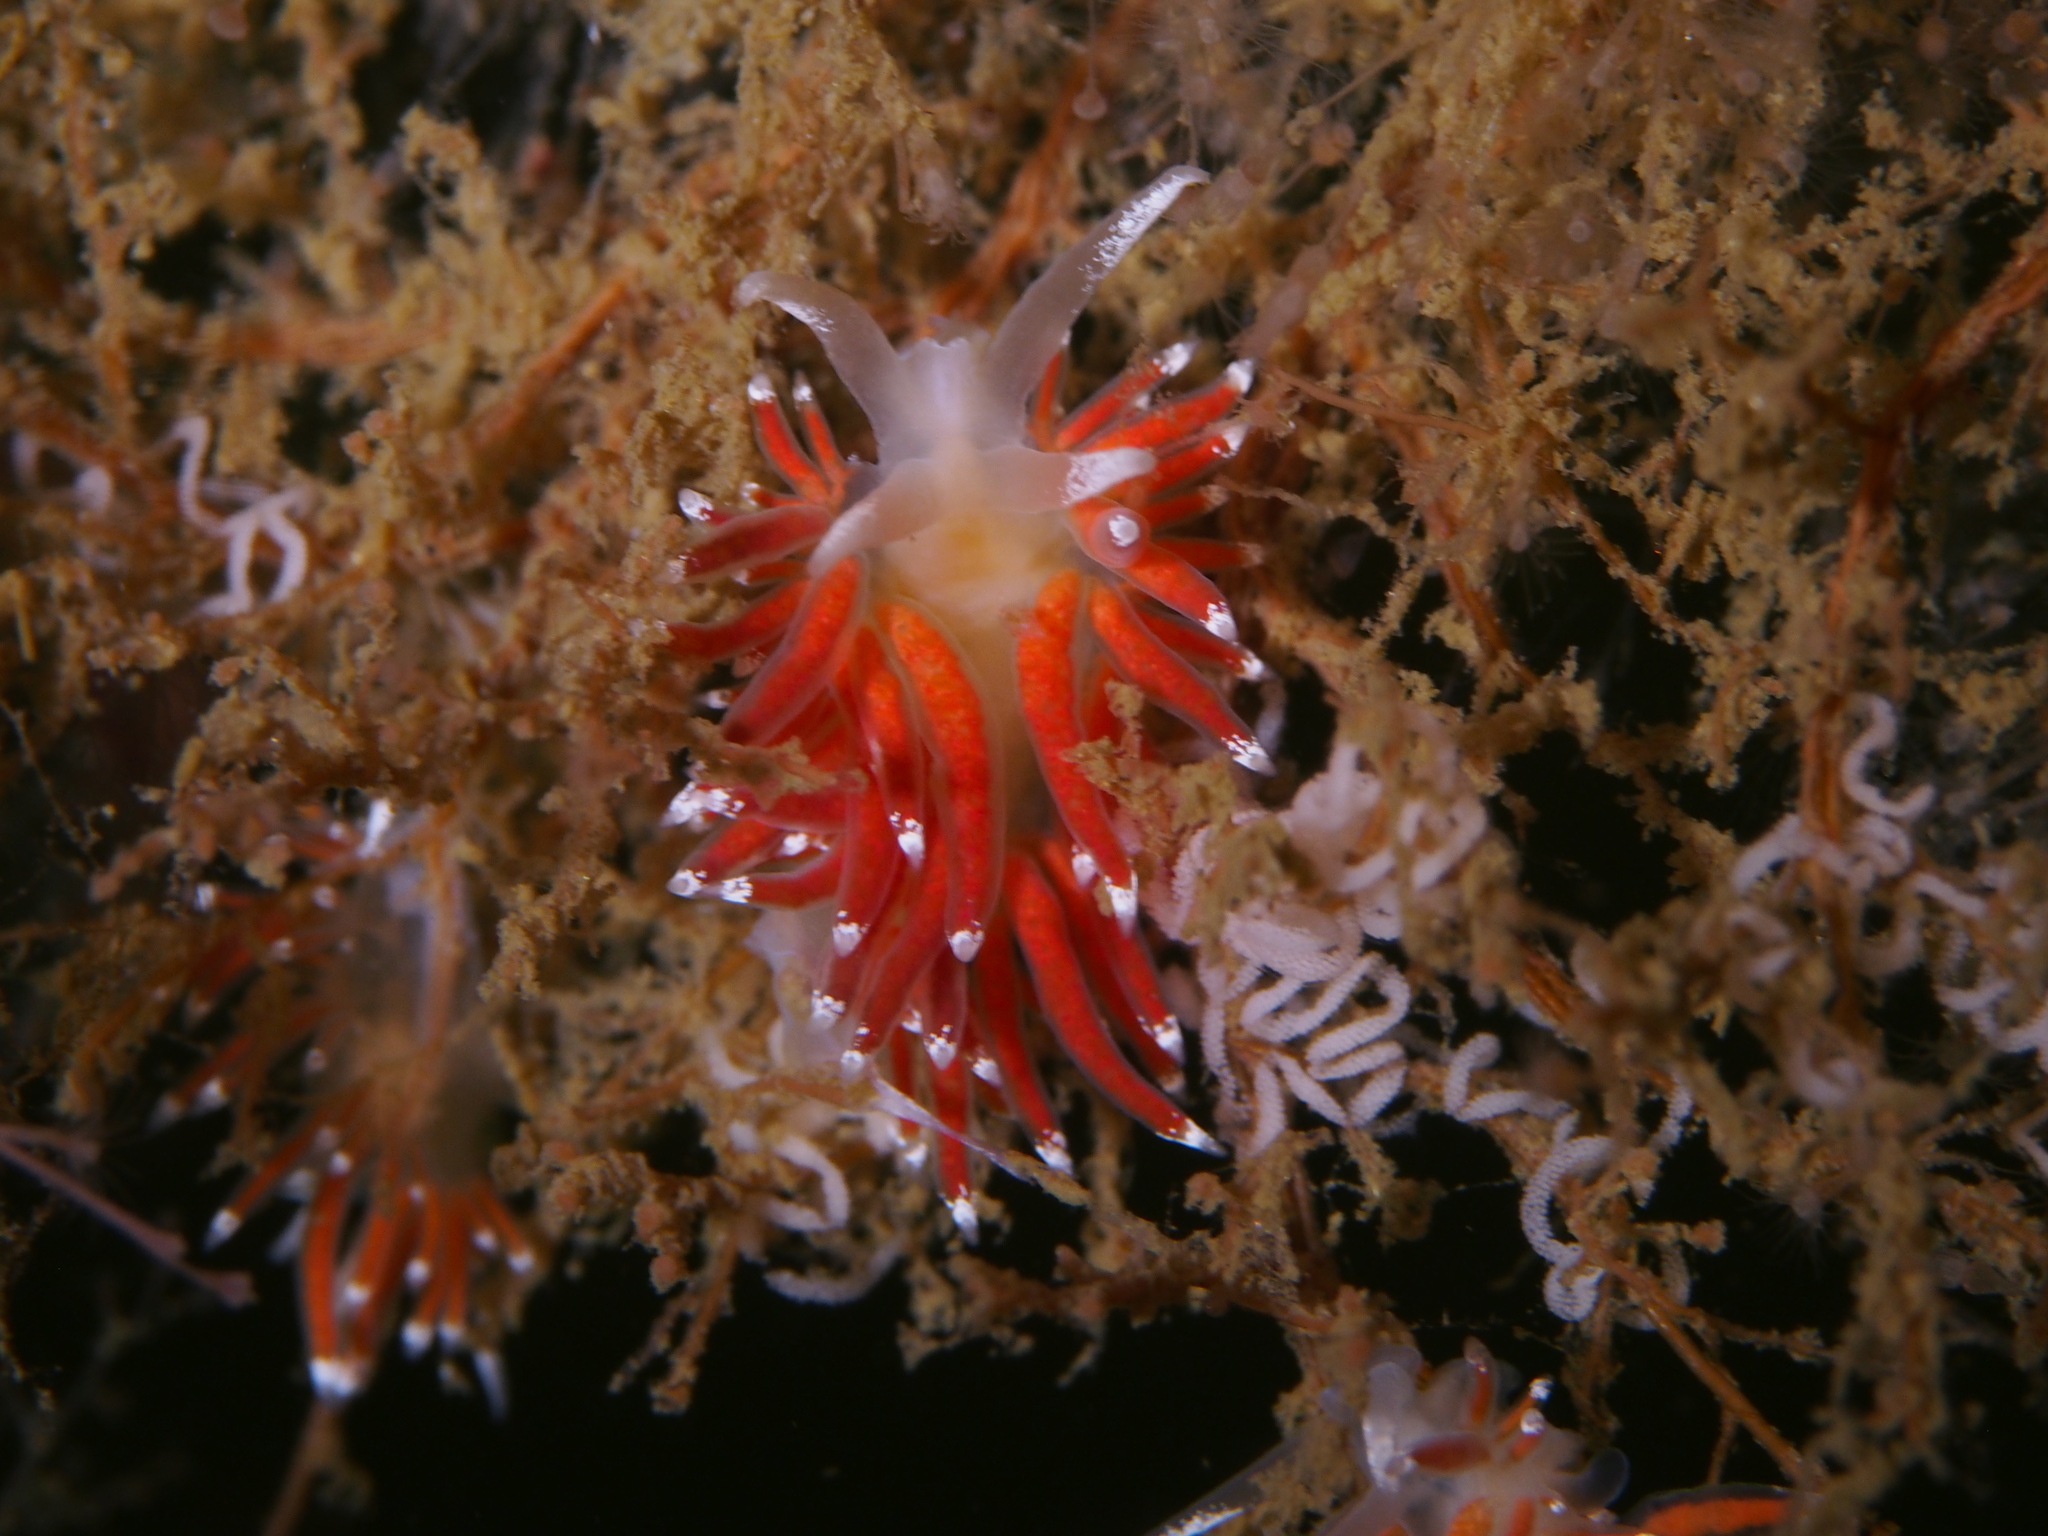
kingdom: Animalia
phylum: Mollusca
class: Gastropoda
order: Nudibranchia
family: Coryphellidae
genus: Coryphella
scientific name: Coryphella gracilis
